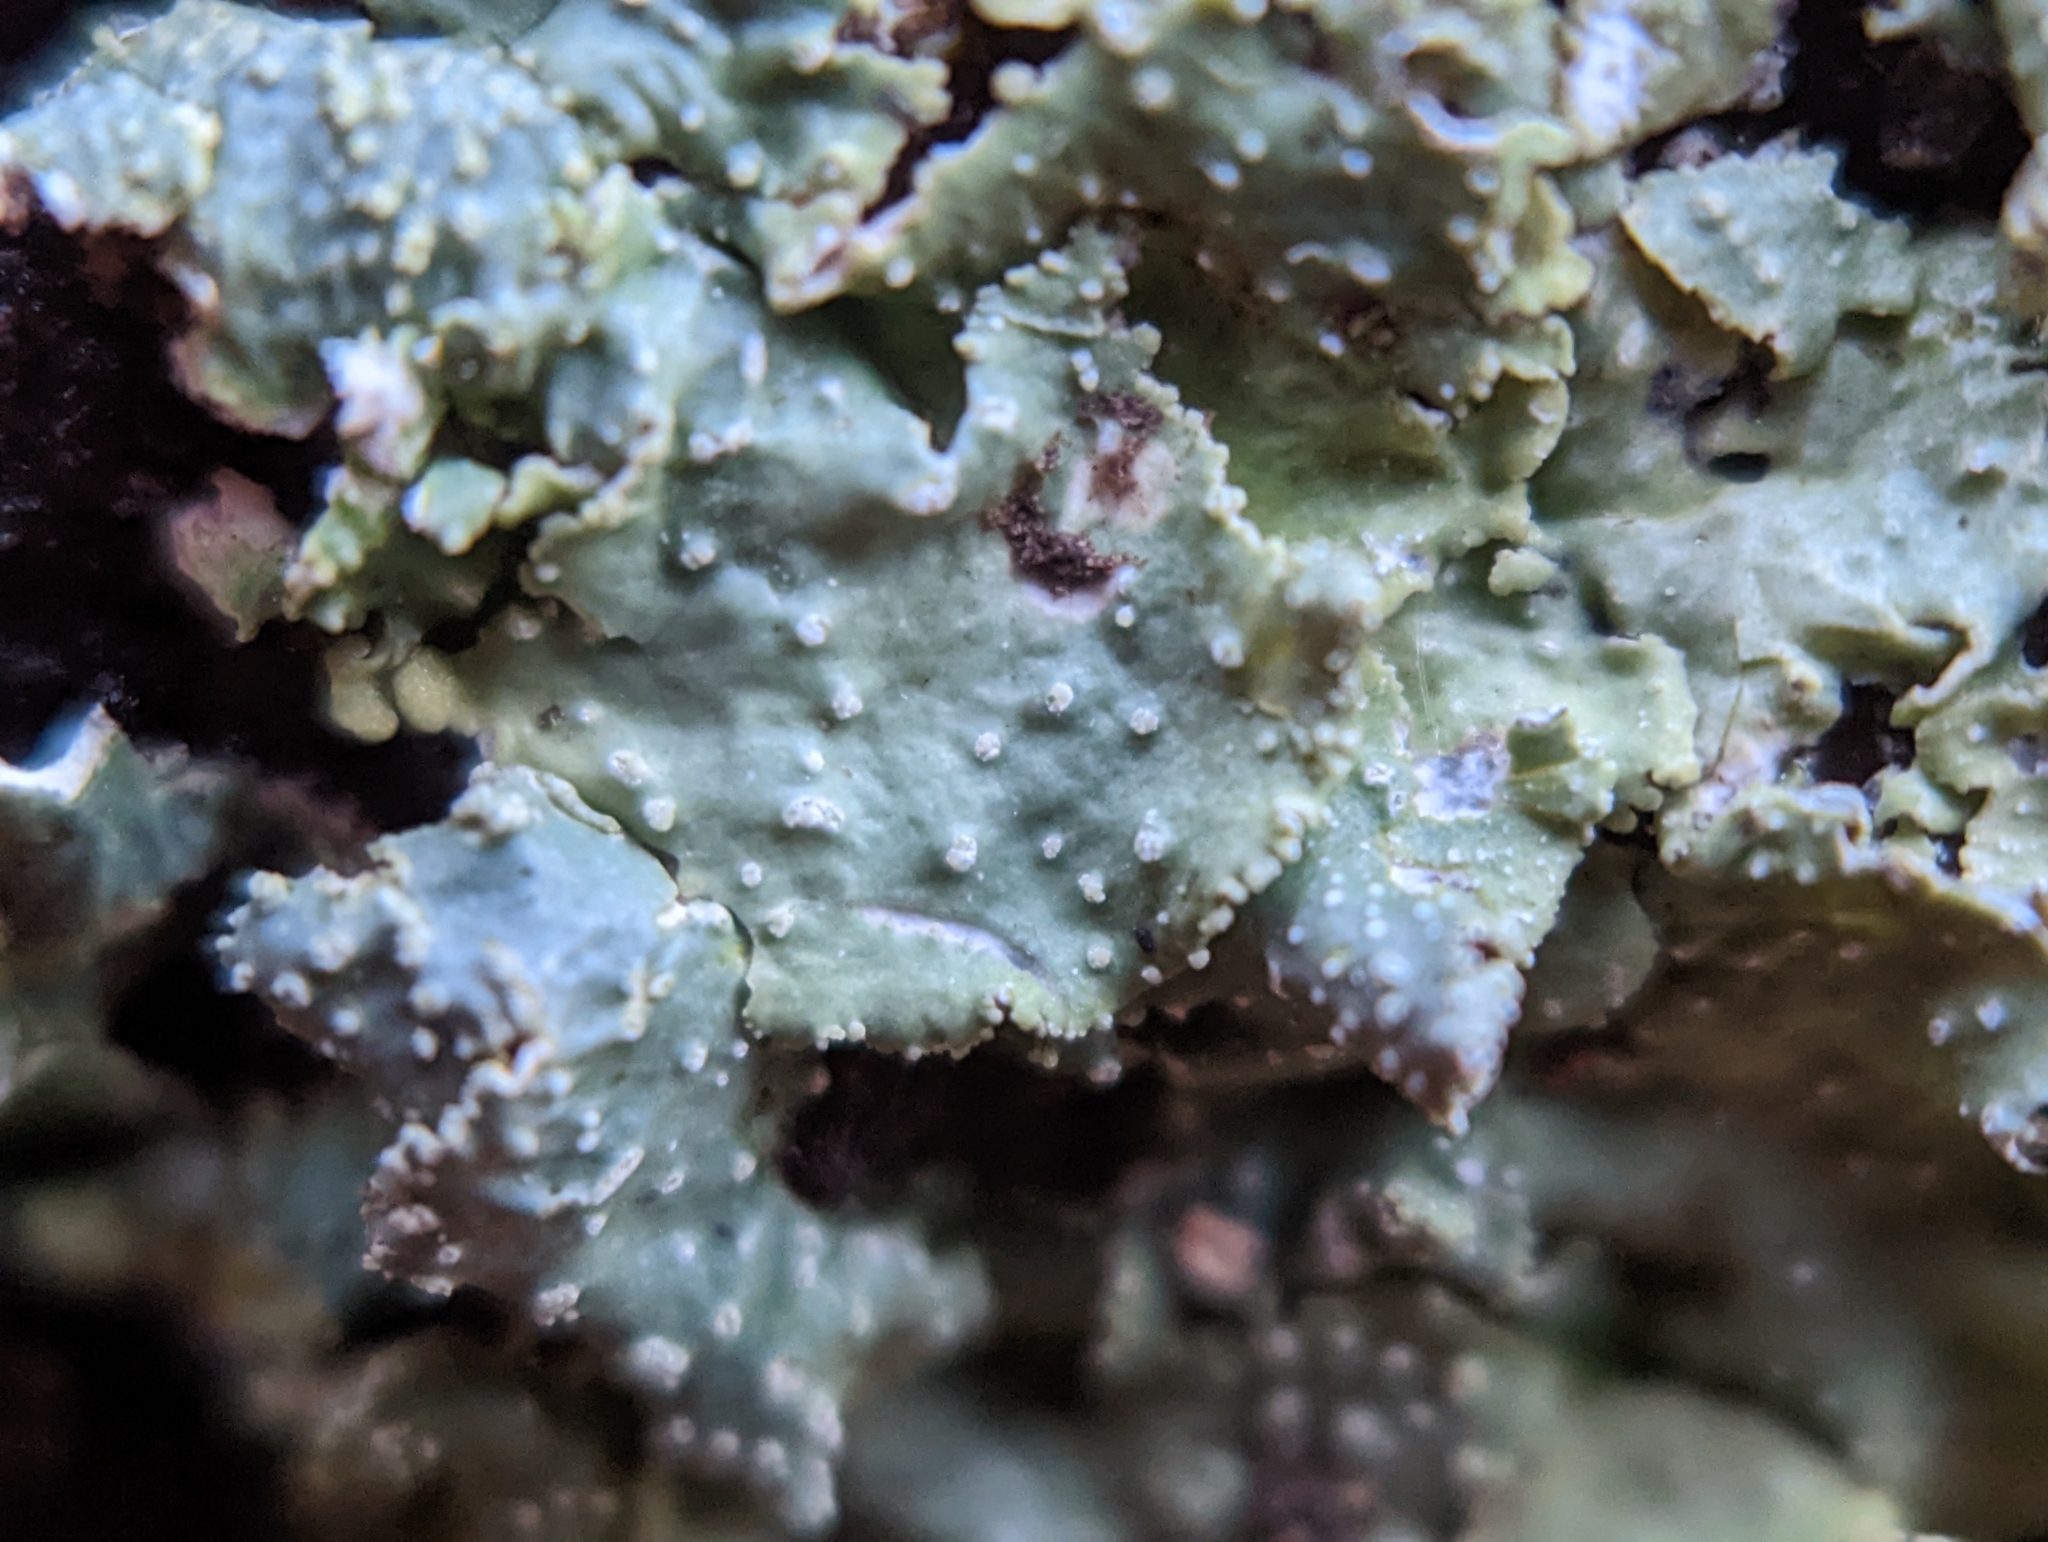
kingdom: Fungi
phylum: Ascomycota
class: Lecanoromycetes
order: Lecanorales
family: Parmeliaceae
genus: Punctelia
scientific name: Punctelia rudecta
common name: Rough speckled shield lichen
